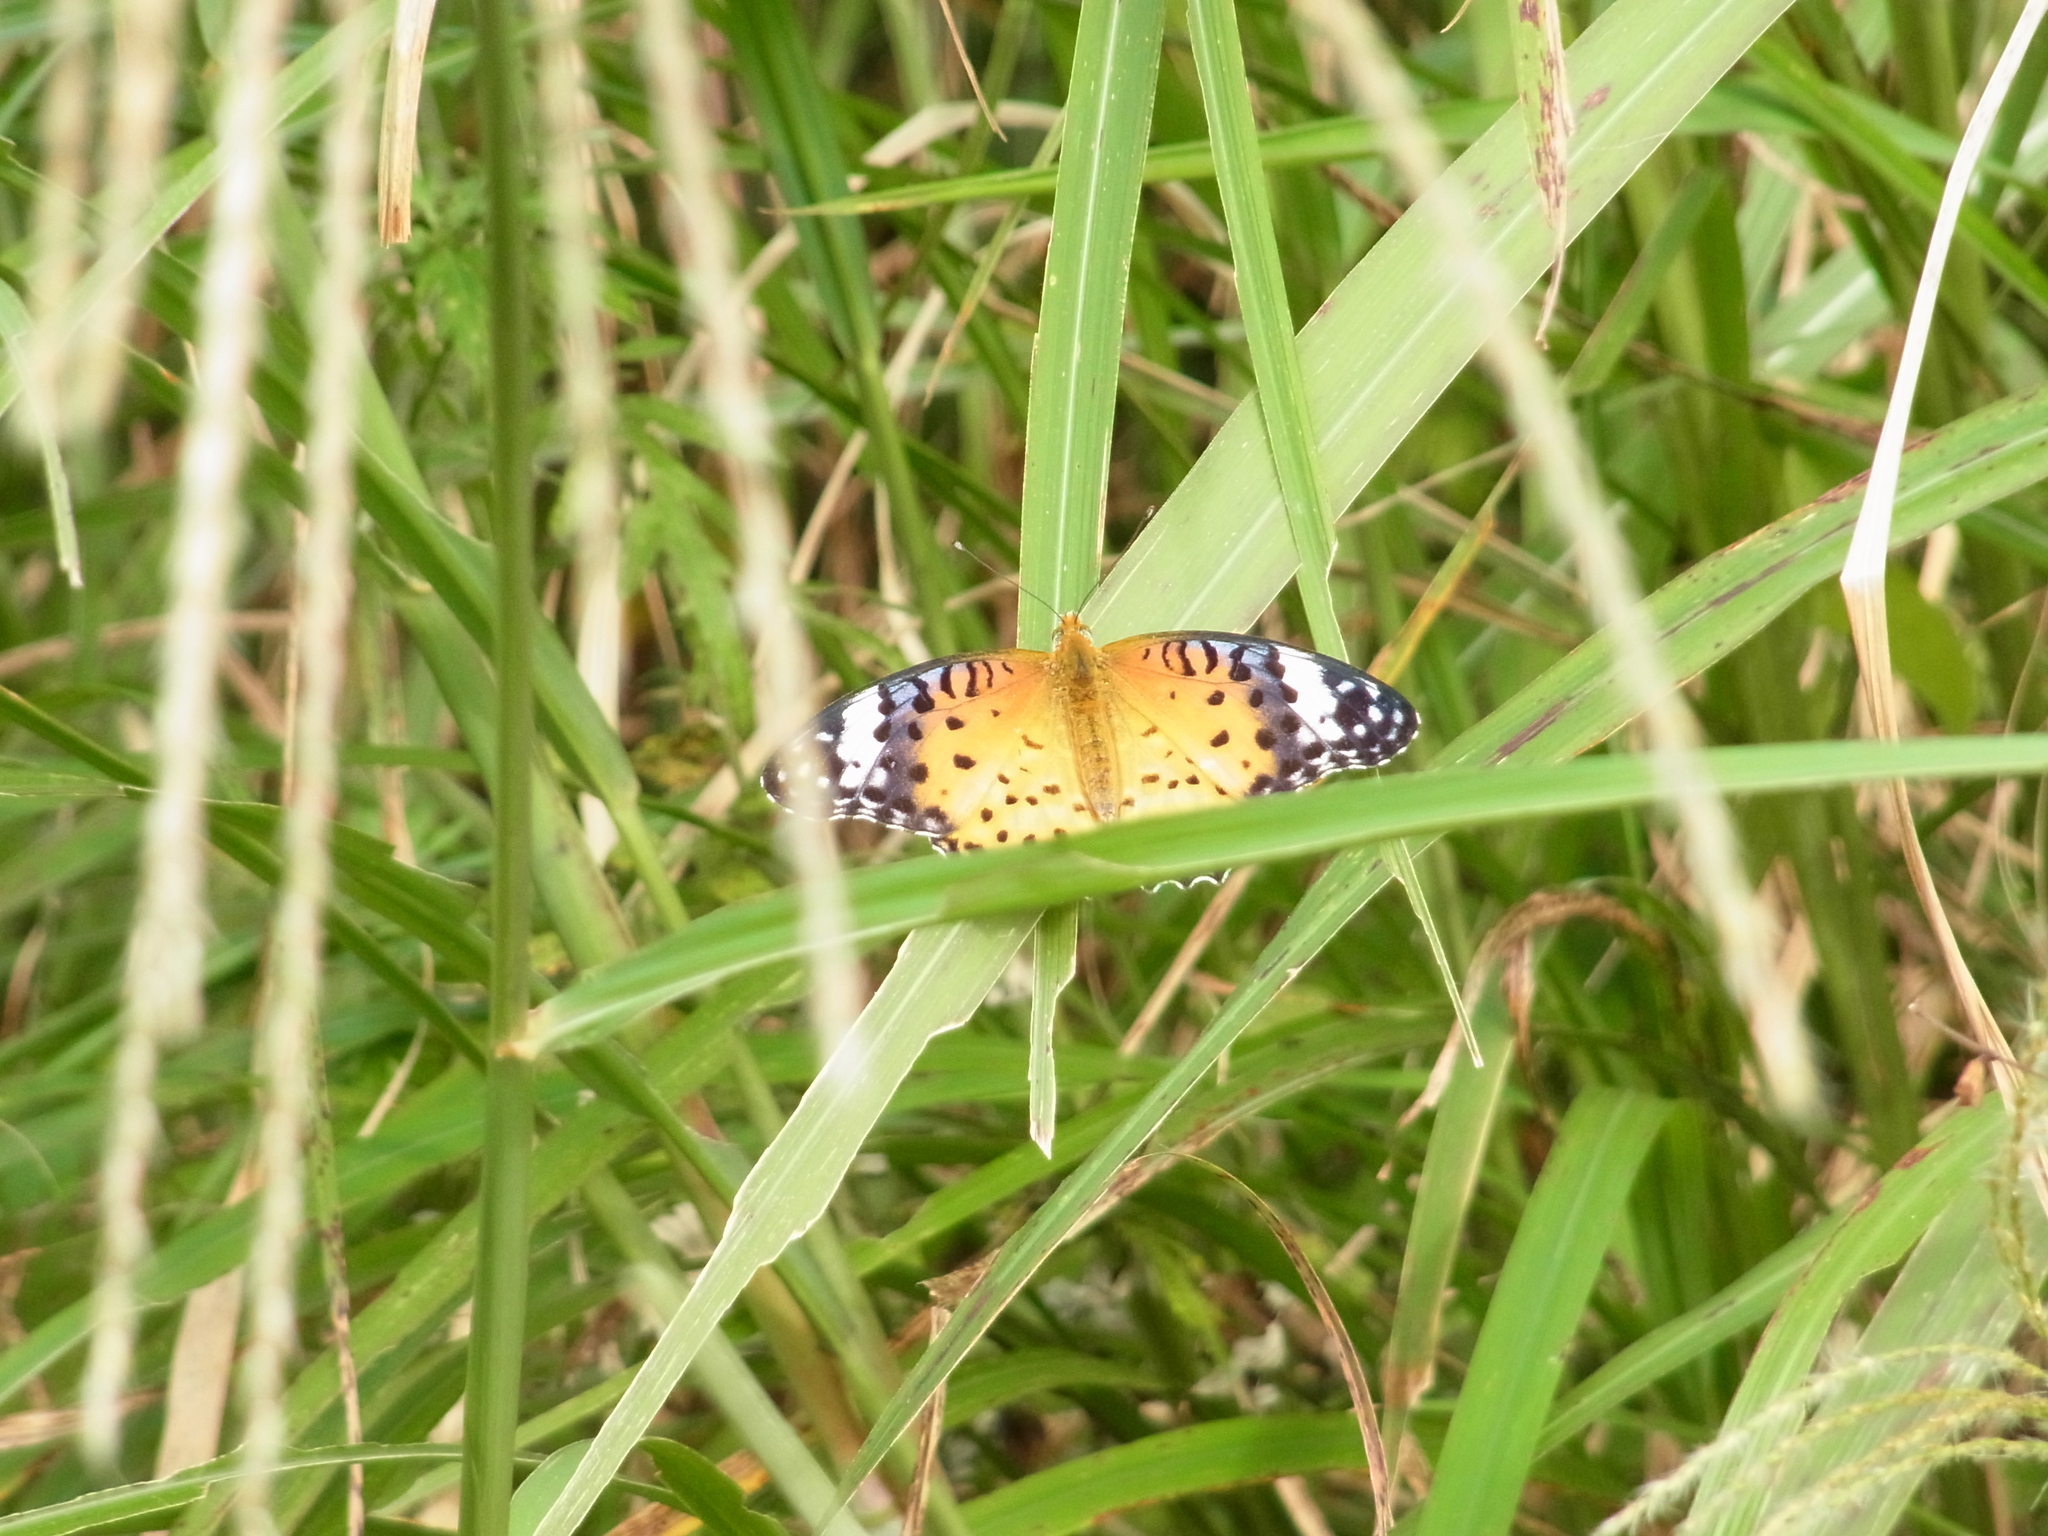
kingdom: Animalia
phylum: Arthropoda
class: Insecta
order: Lepidoptera
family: Nymphalidae
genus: Argynnis
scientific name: Argynnis hyperbius
